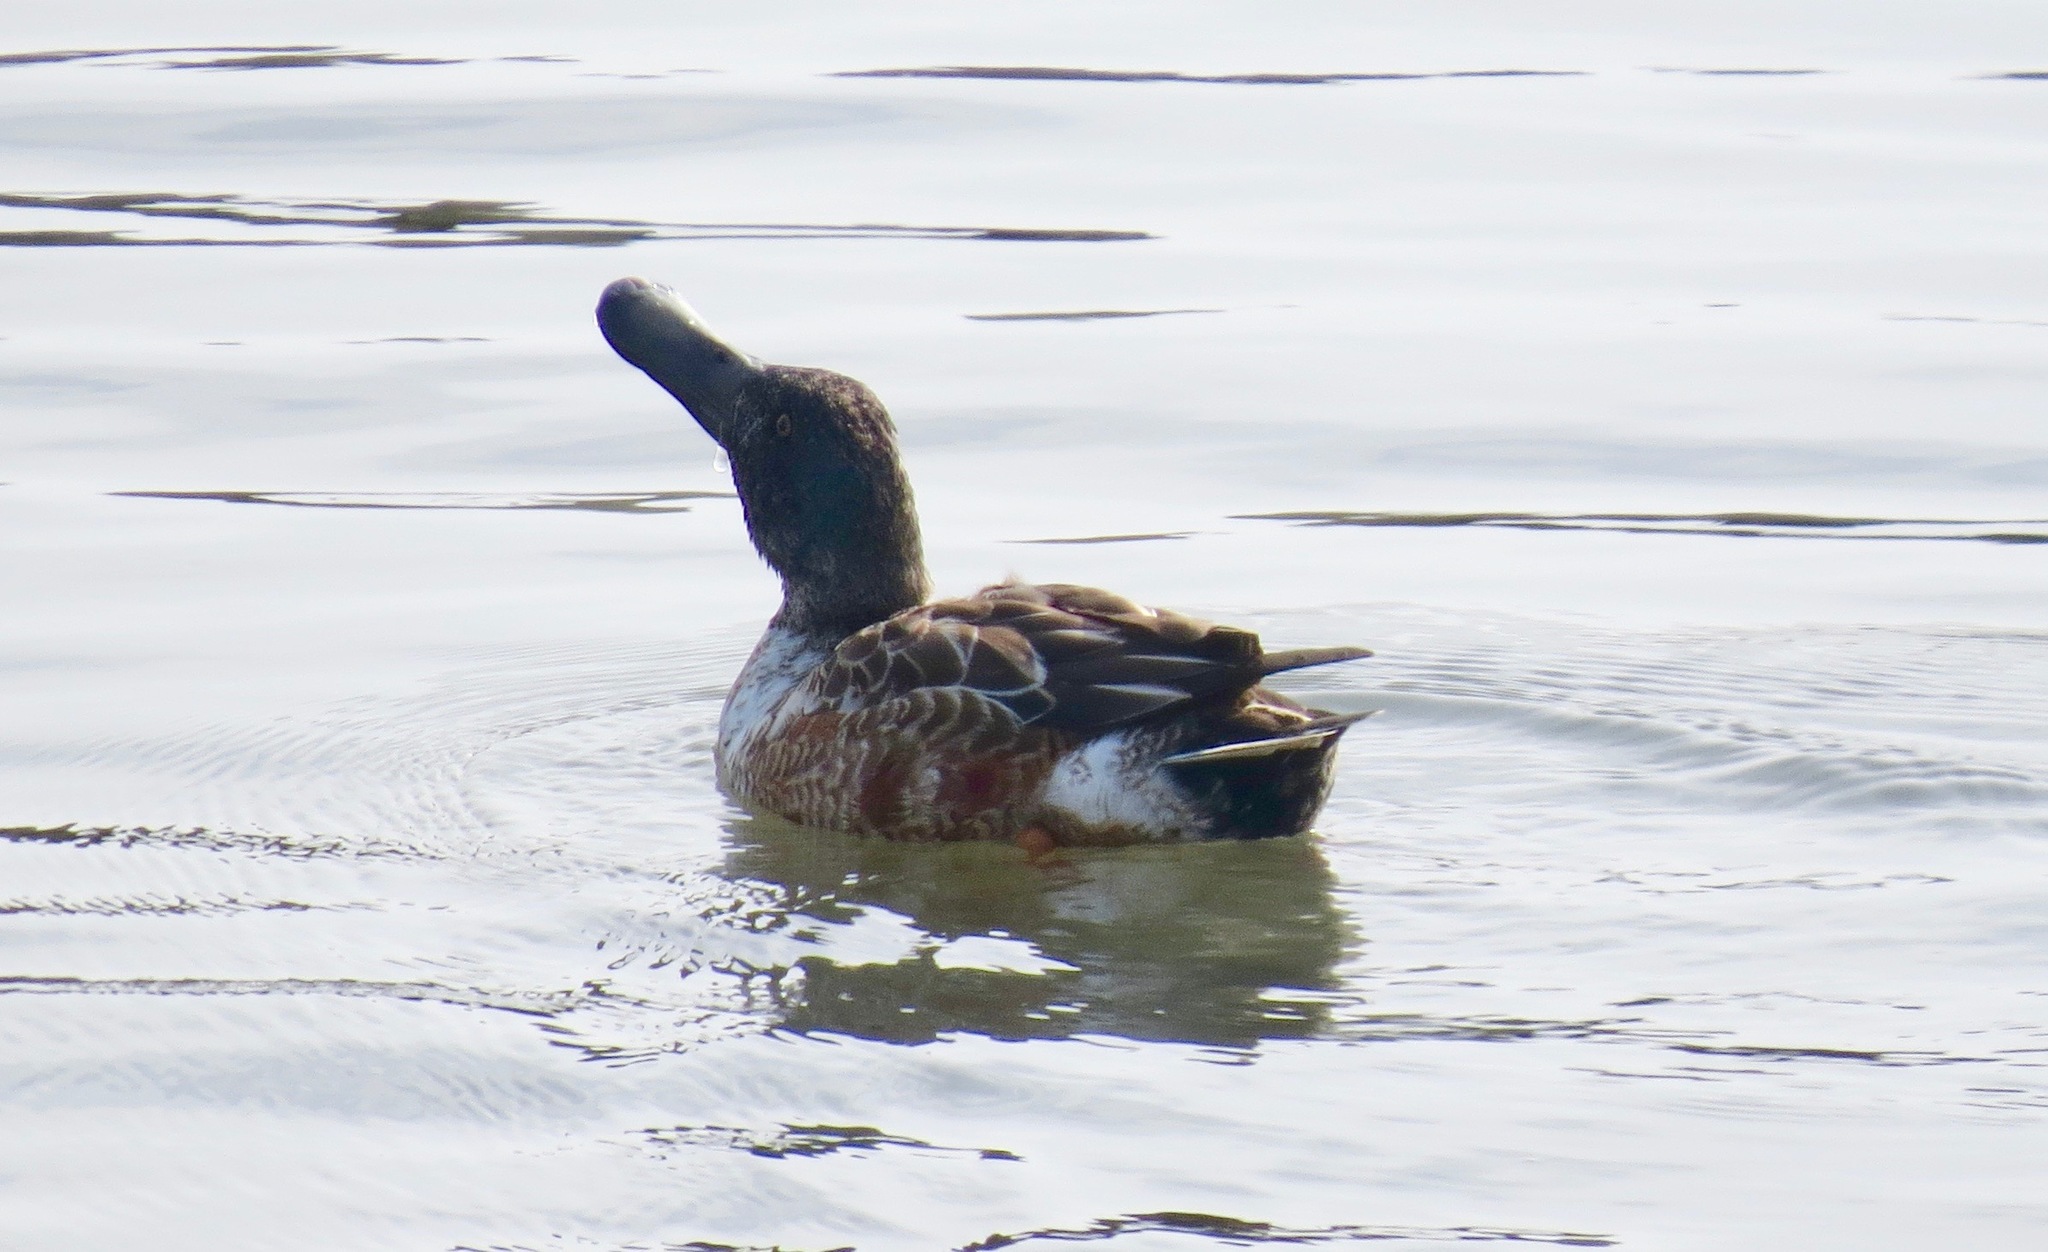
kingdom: Animalia
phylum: Chordata
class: Aves
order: Anseriformes
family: Anatidae
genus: Spatula
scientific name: Spatula clypeata
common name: Northern shoveler
